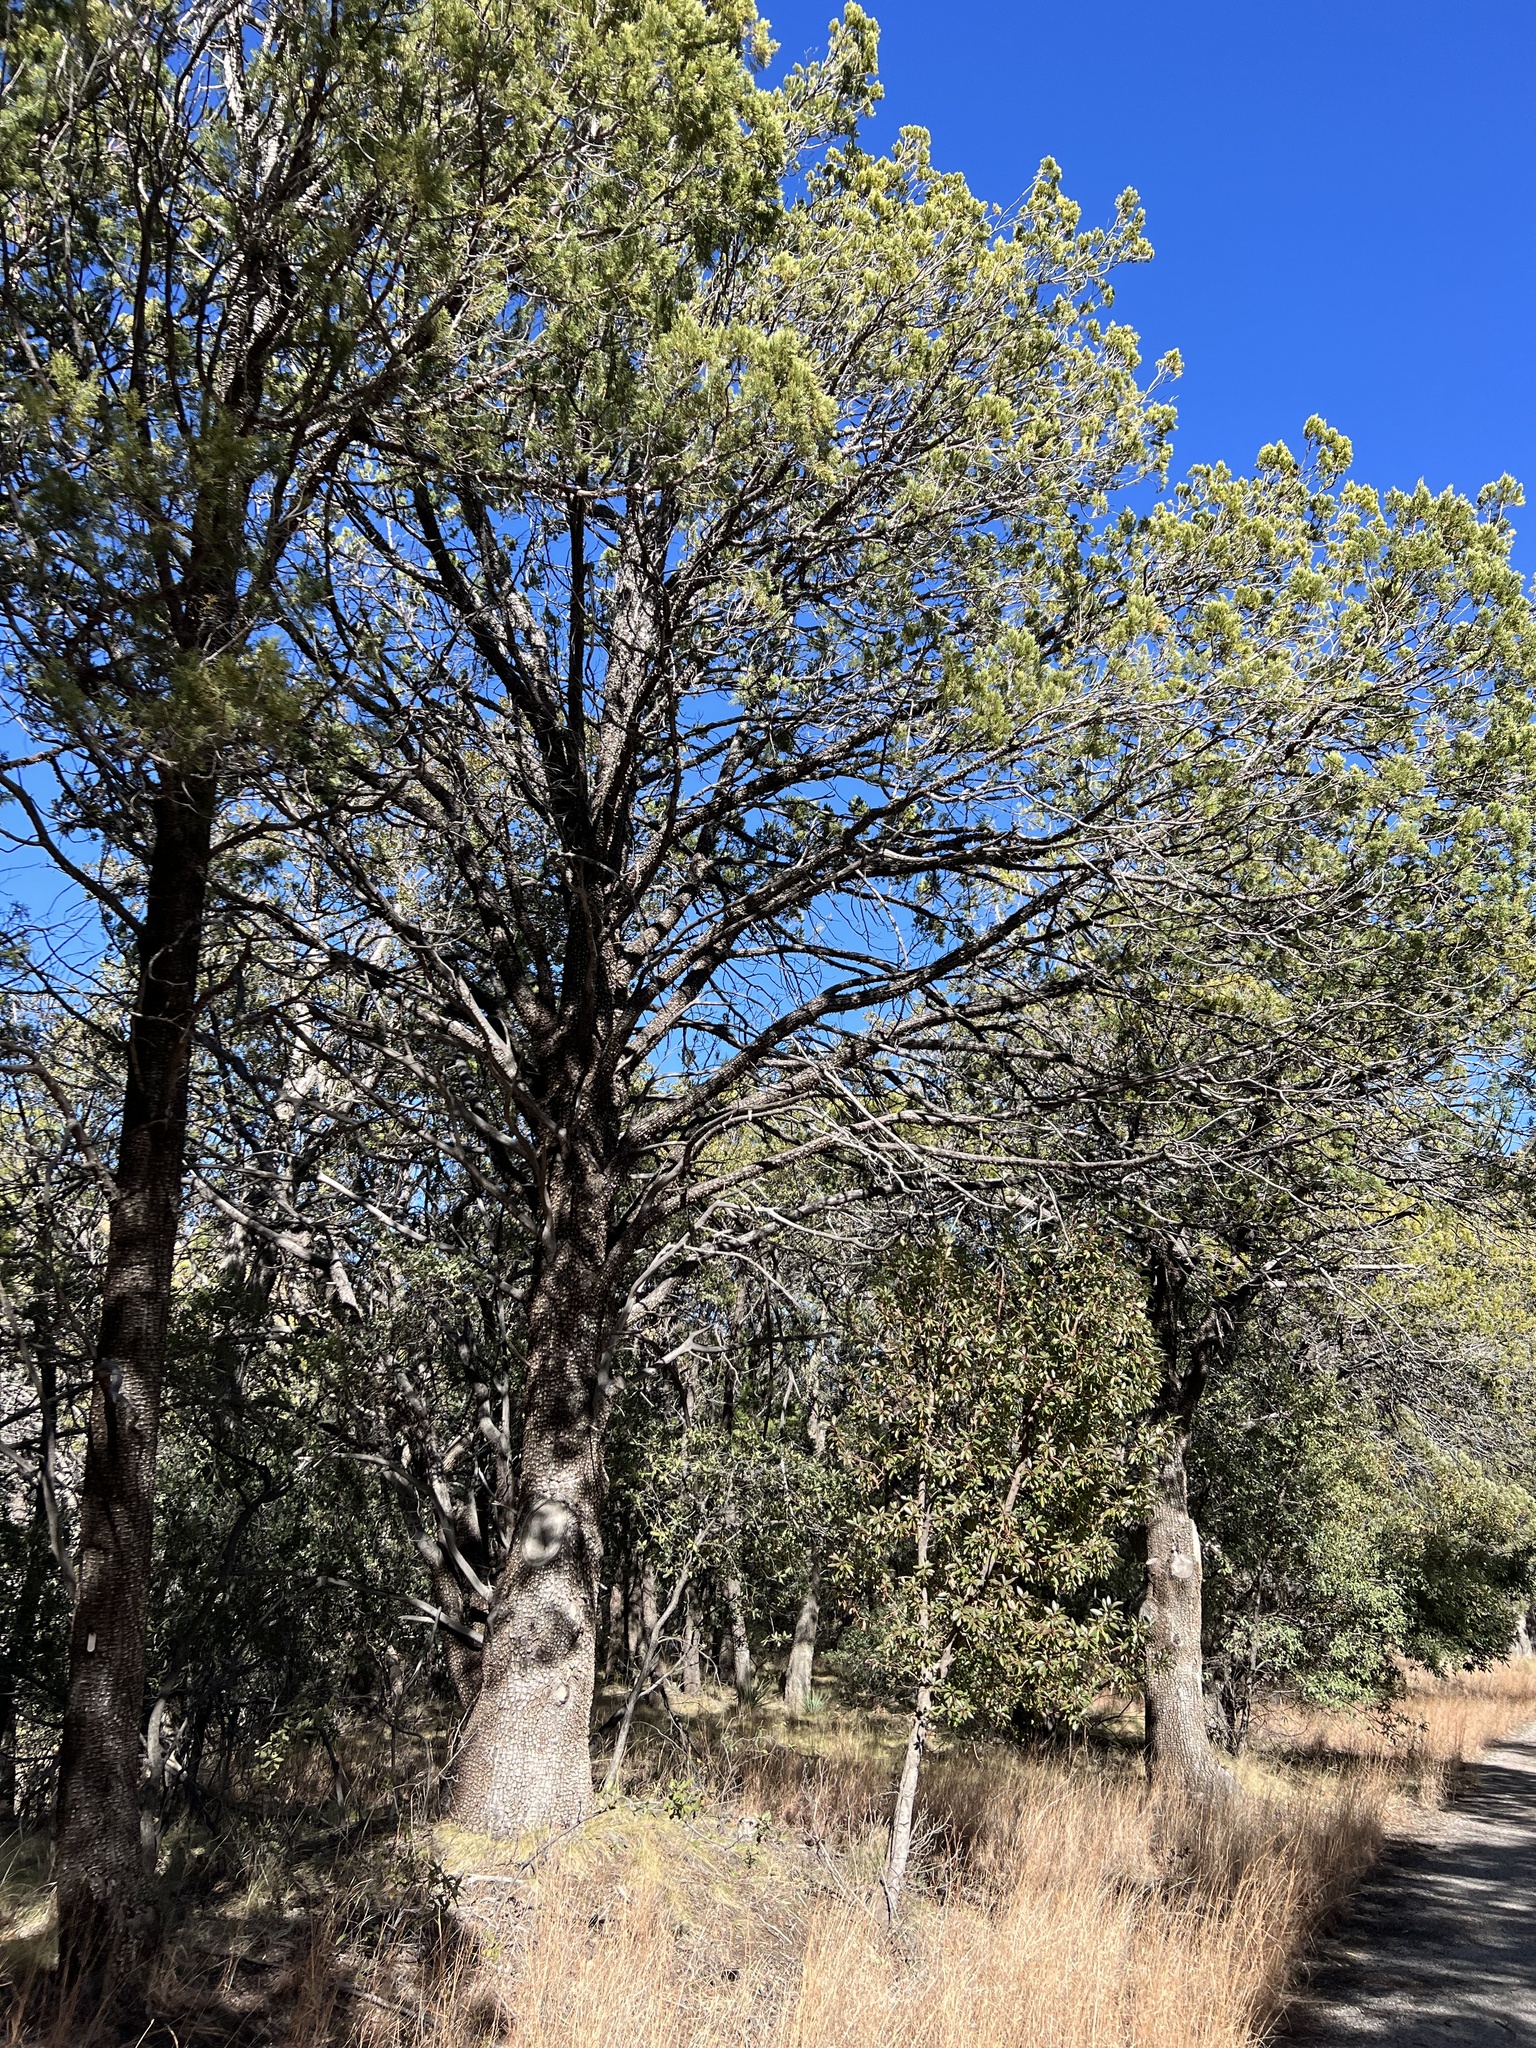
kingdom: Plantae
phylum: Tracheophyta
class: Pinopsida
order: Pinales
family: Cupressaceae
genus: Juniperus
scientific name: Juniperus deppeana
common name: Alligator juniper
